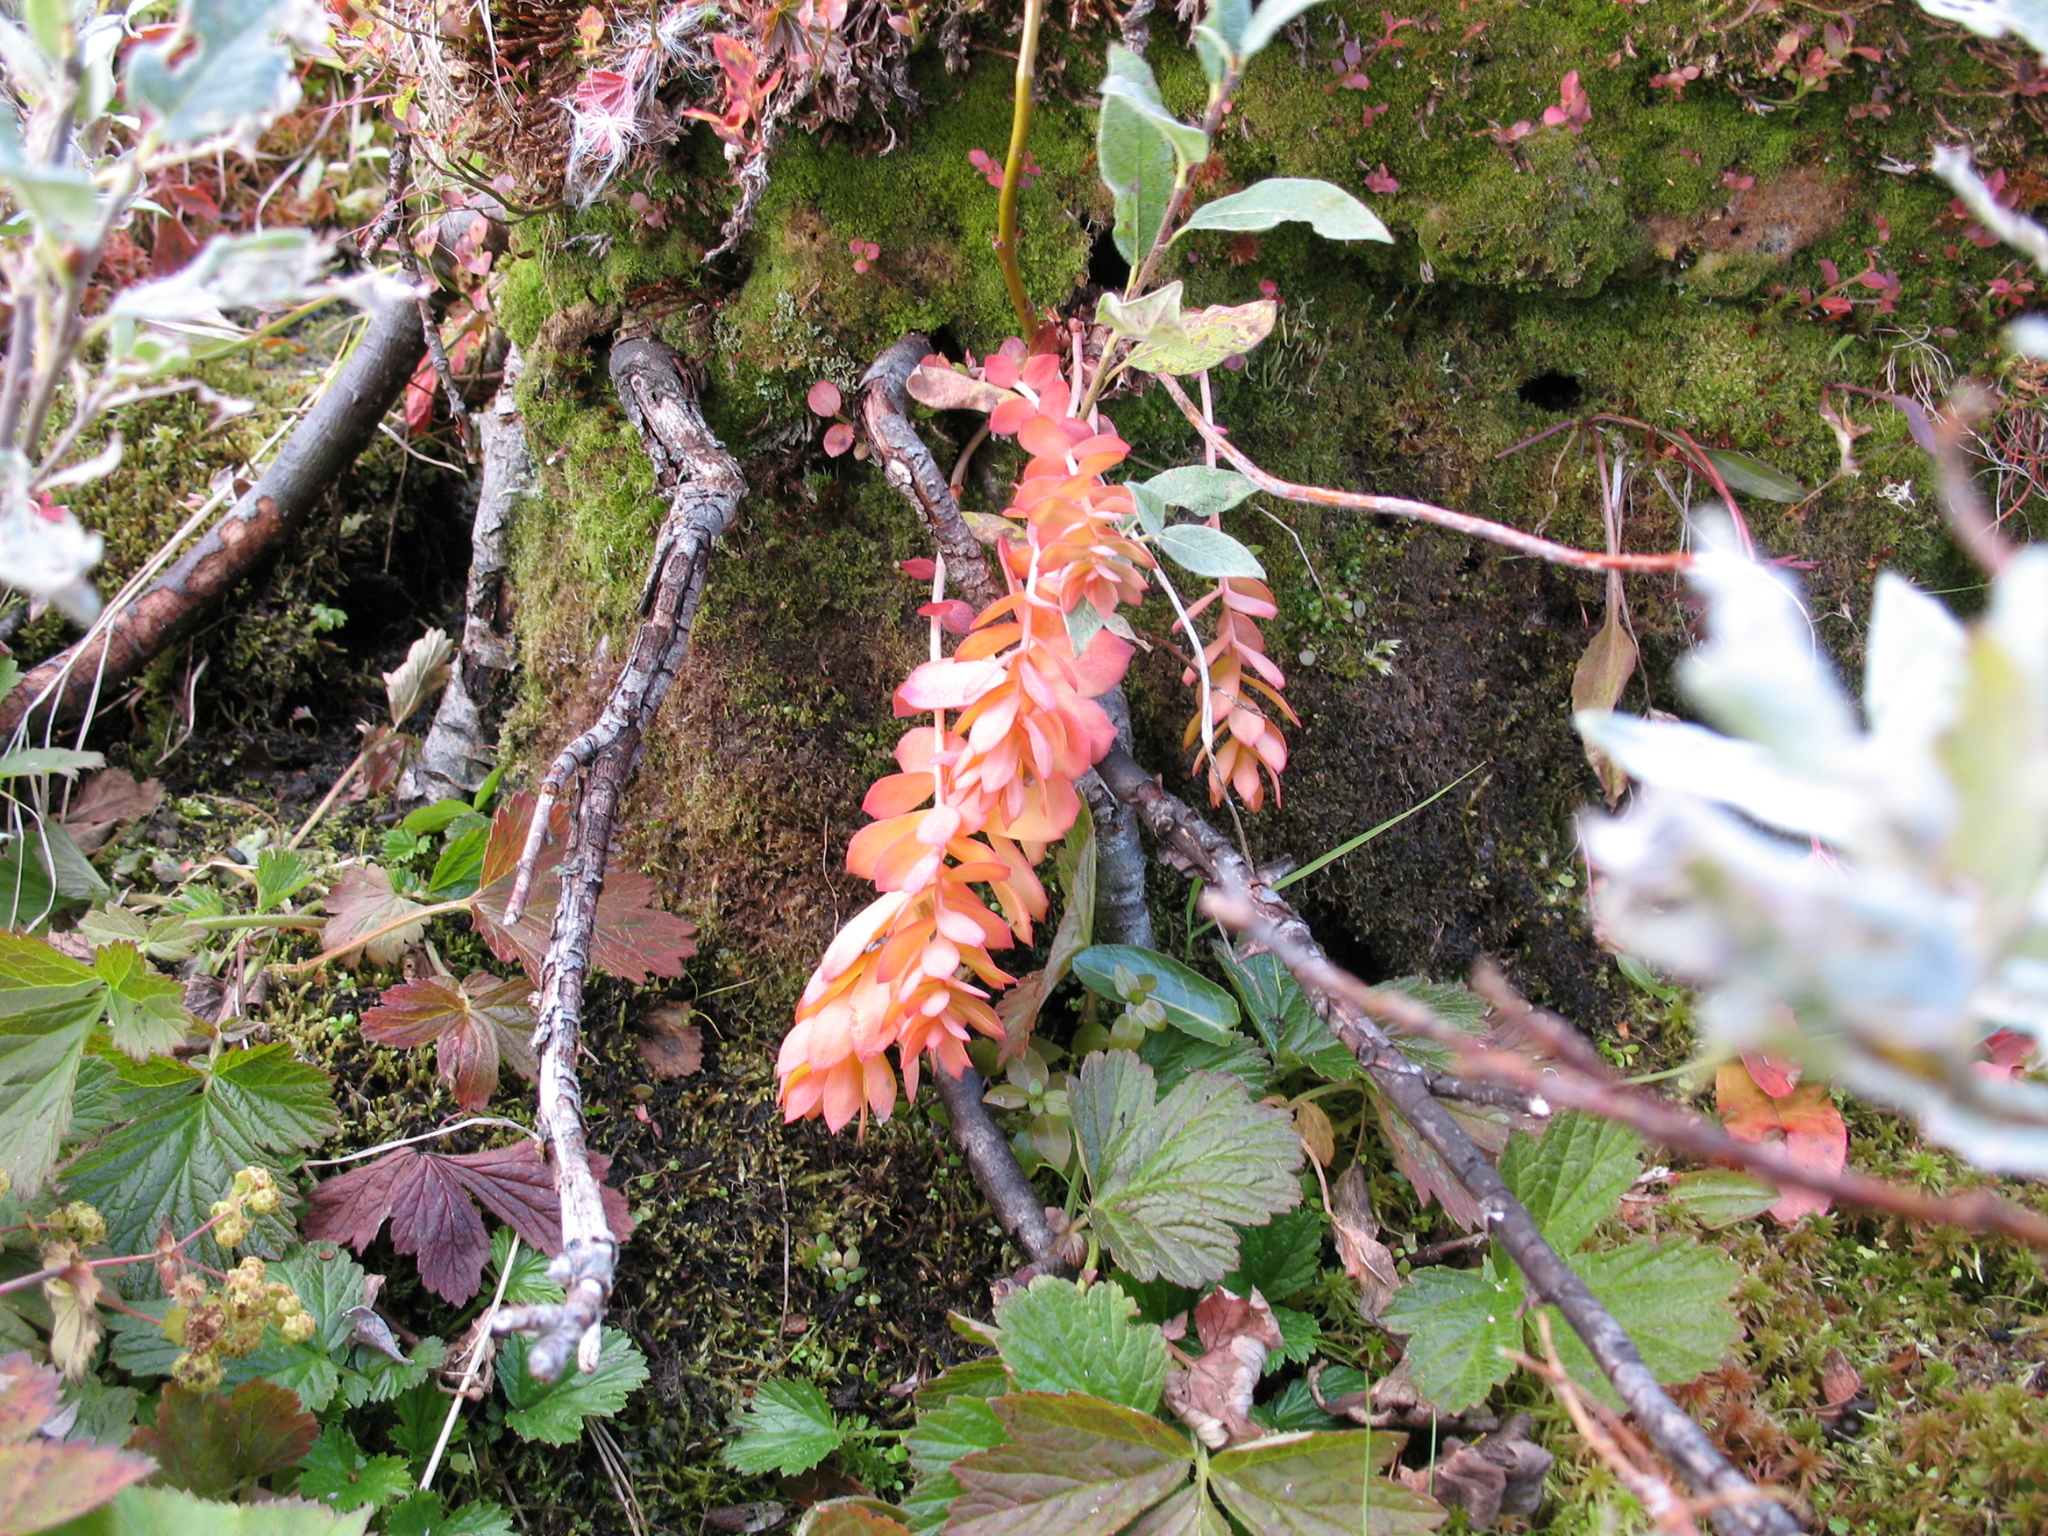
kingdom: Plantae
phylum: Tracheophyta
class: Magnoliopsida
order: Saxifragales
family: Crassulaceae
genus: Rhodiola
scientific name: Rhodiola rosea
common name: Roseroot
